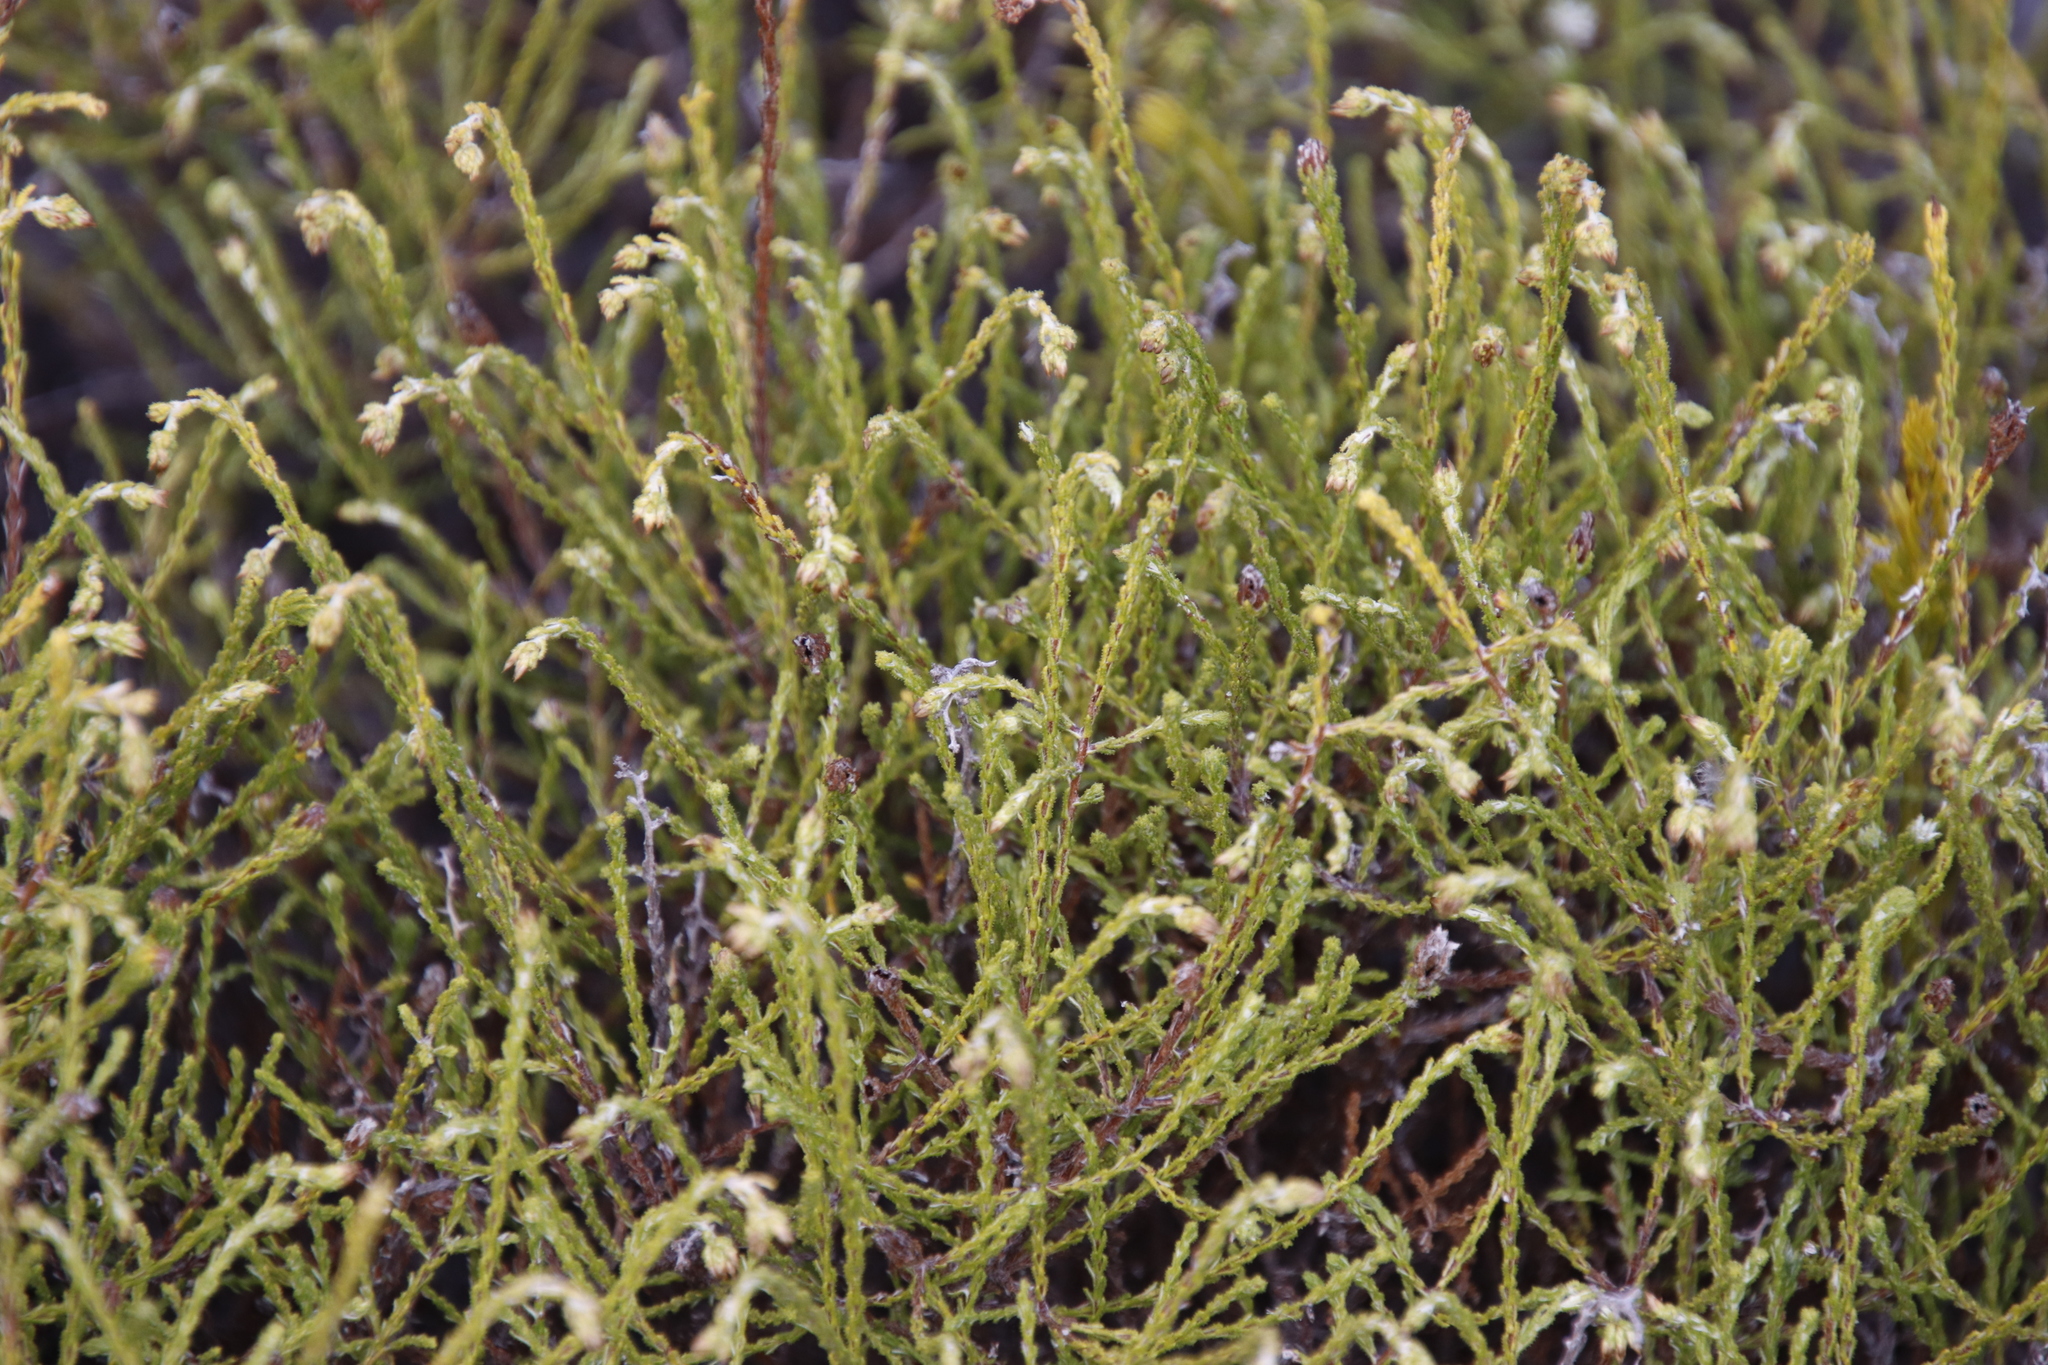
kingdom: Plantae
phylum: Tracheophyta
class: Magnoliopsida
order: Asterales
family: Asteraceae
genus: Myrovernix
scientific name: Myrovernix scaber
